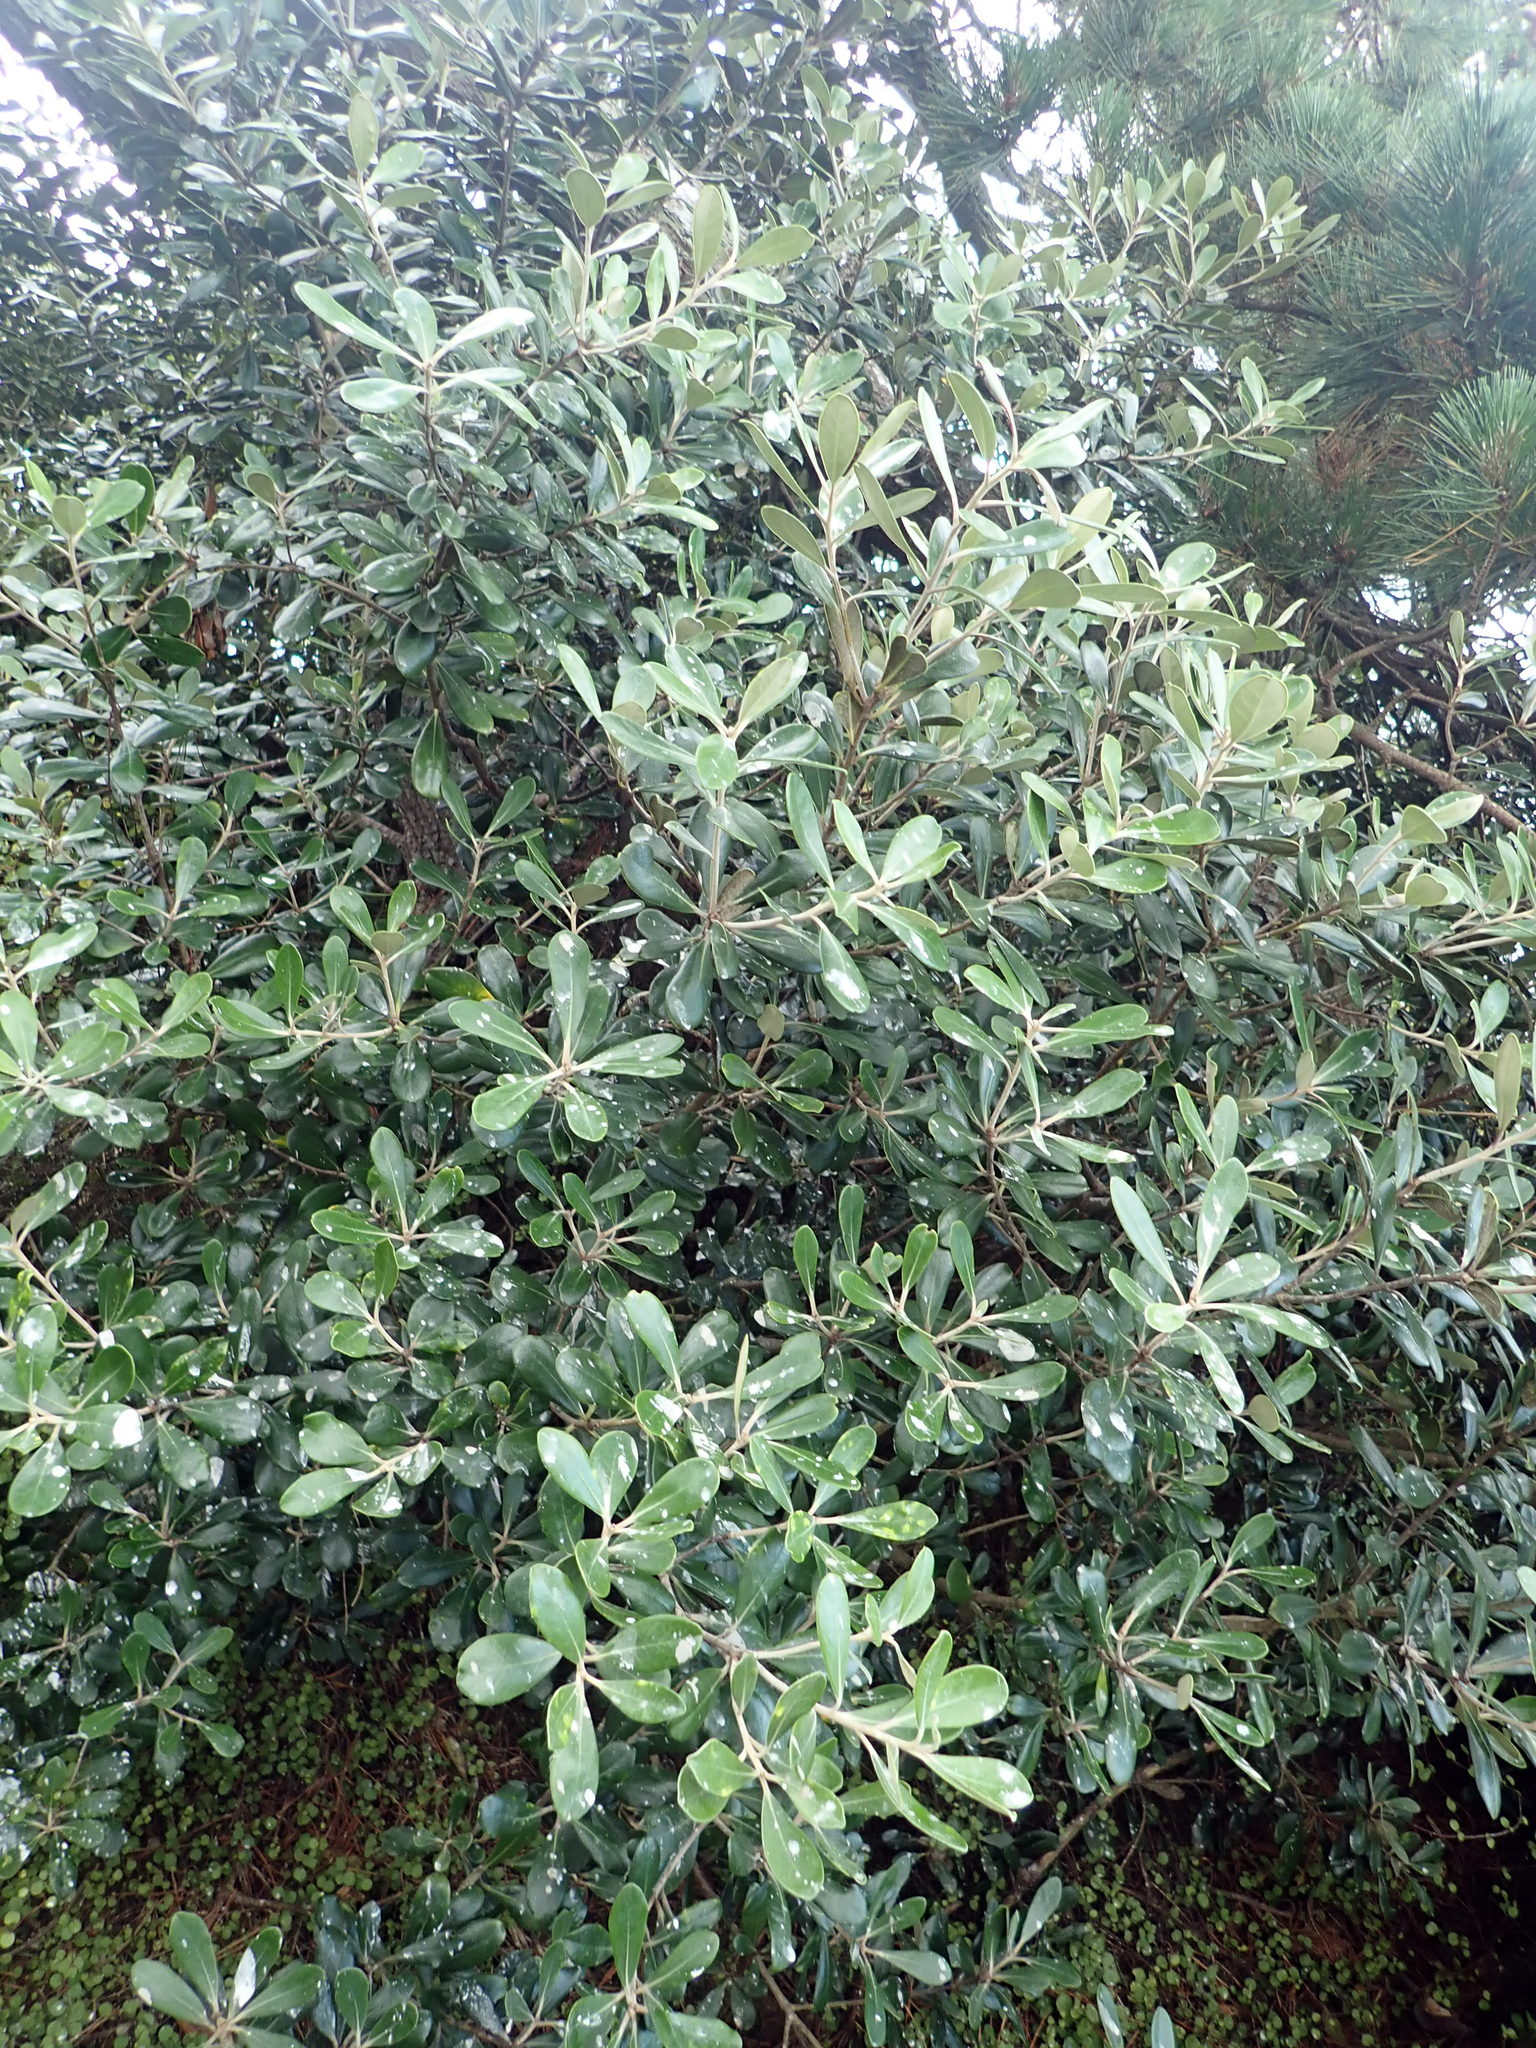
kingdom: Plantae
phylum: Tracheophyta
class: Magnoliopsida
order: Apiales
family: Pittosporaceae
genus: Pittosporum
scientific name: Pittosporum crassifolium
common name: Karo
